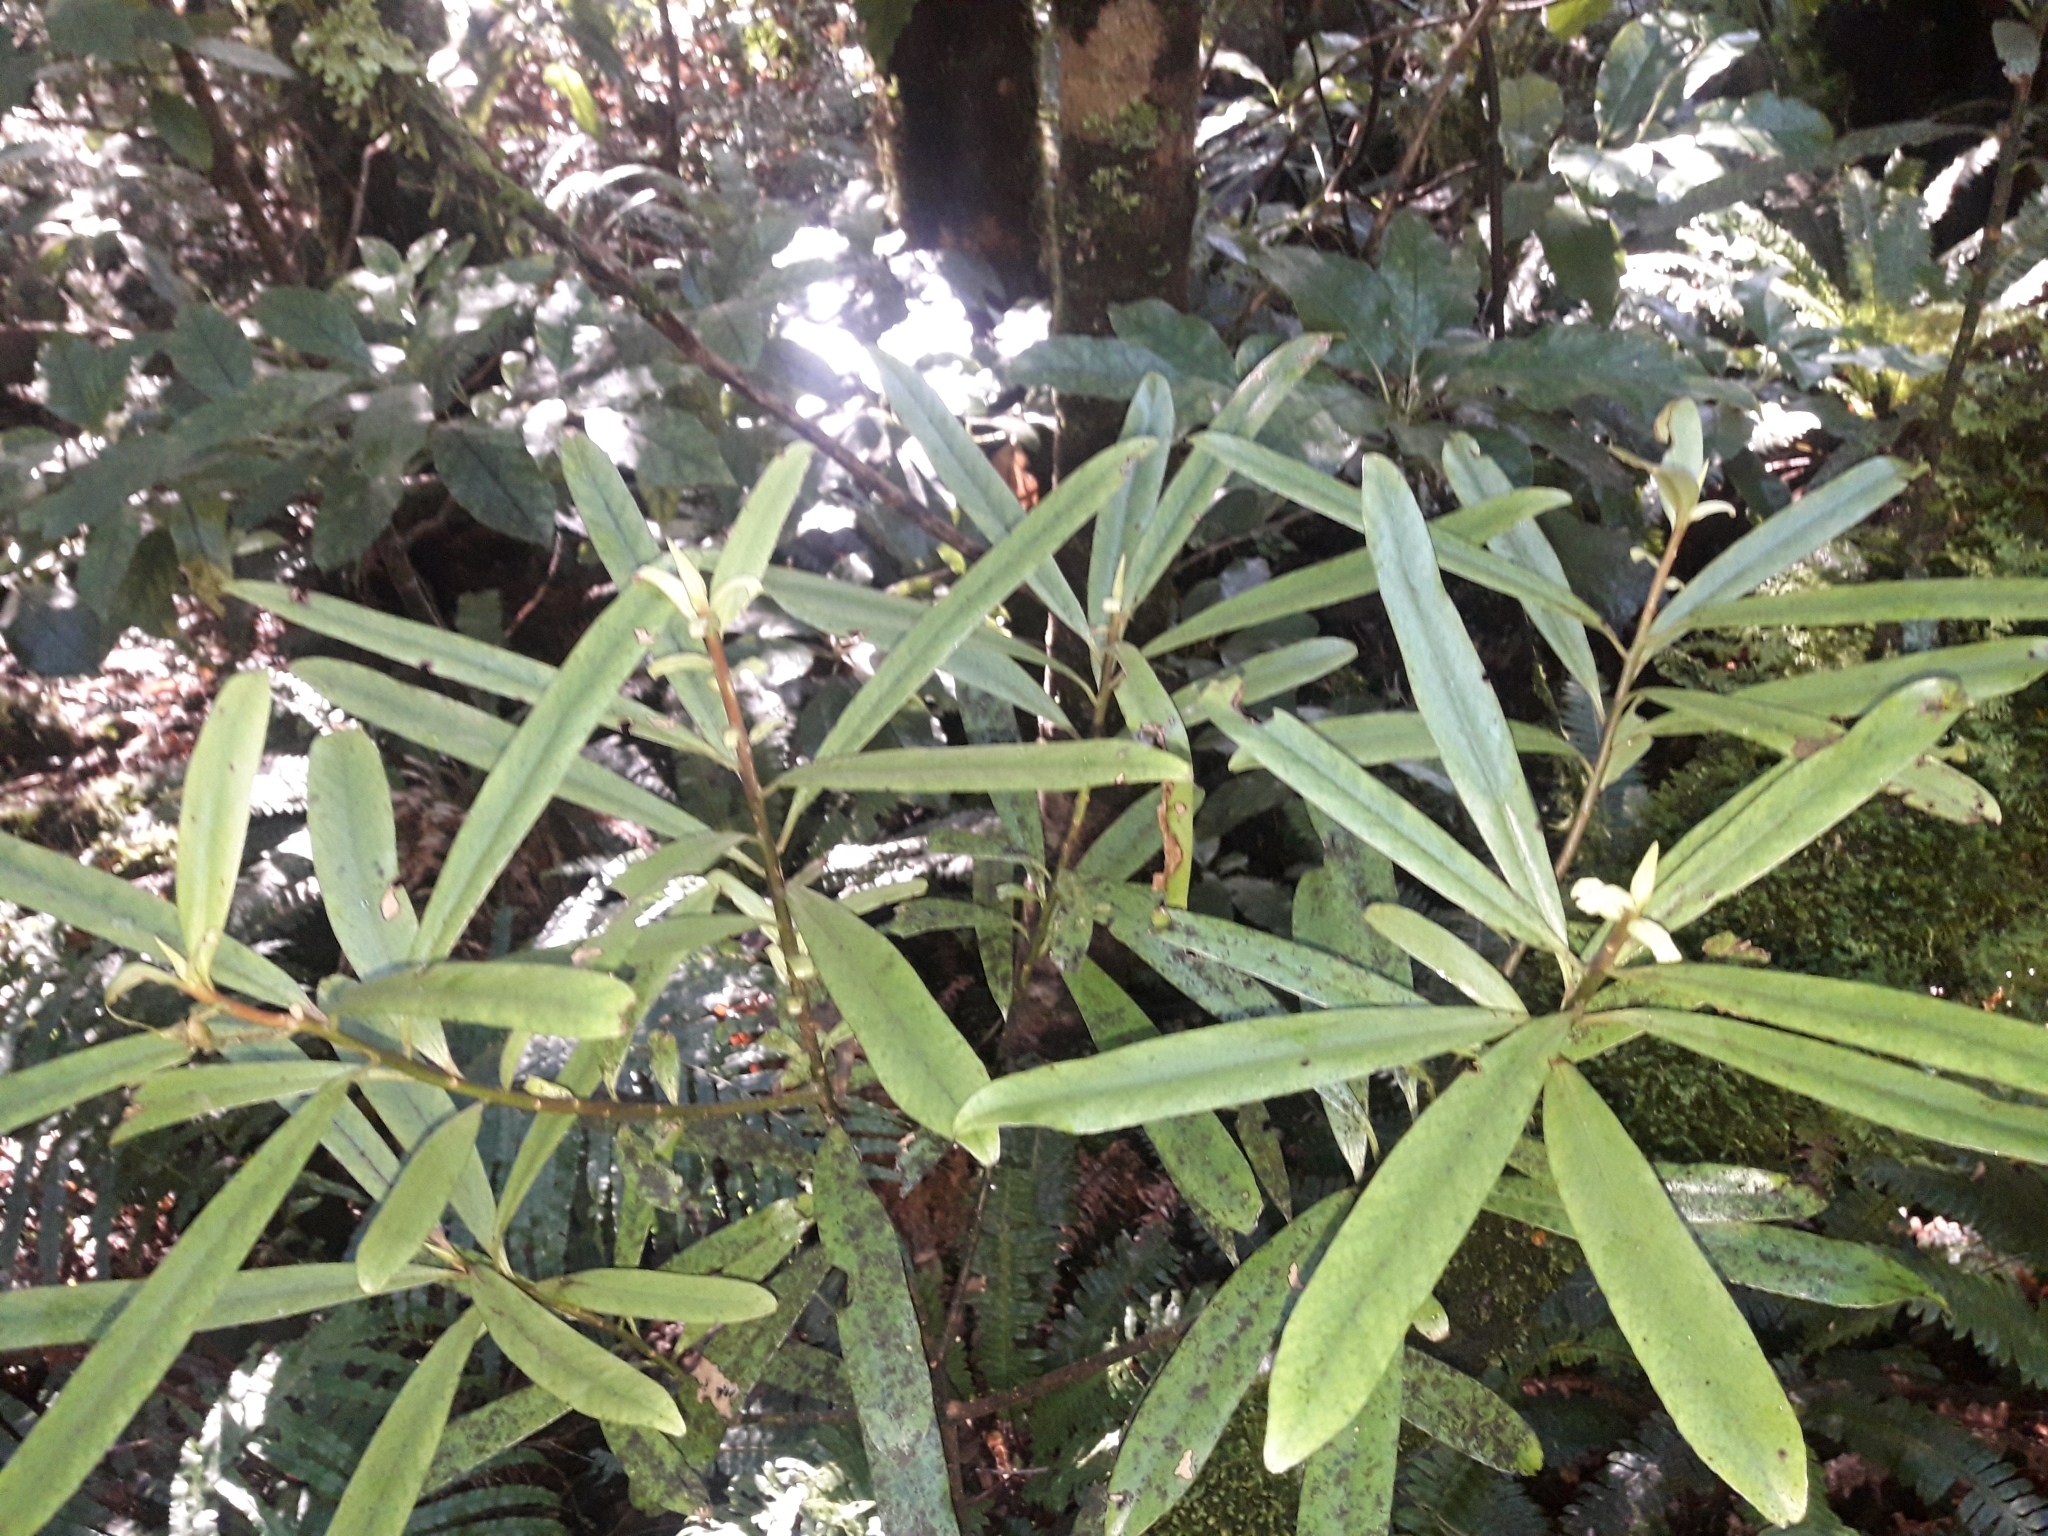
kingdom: Plantae
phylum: Tracheophyta
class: Magnoliopsida
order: Ericales
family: Primulaceae
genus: Myrsine
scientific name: Myrsine salicina
